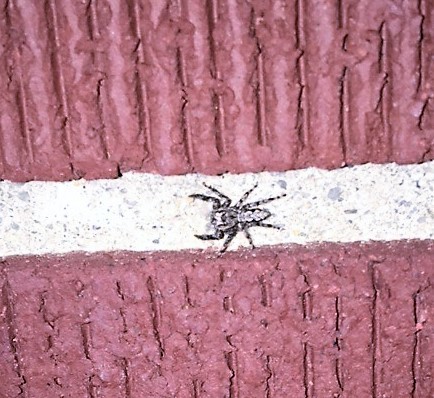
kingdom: Animalia
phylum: Arthropoda
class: Arachnida
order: Araneae
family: Salticidae
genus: Platycryptus
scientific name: Platycryptus undatus
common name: Tan jumping spider
